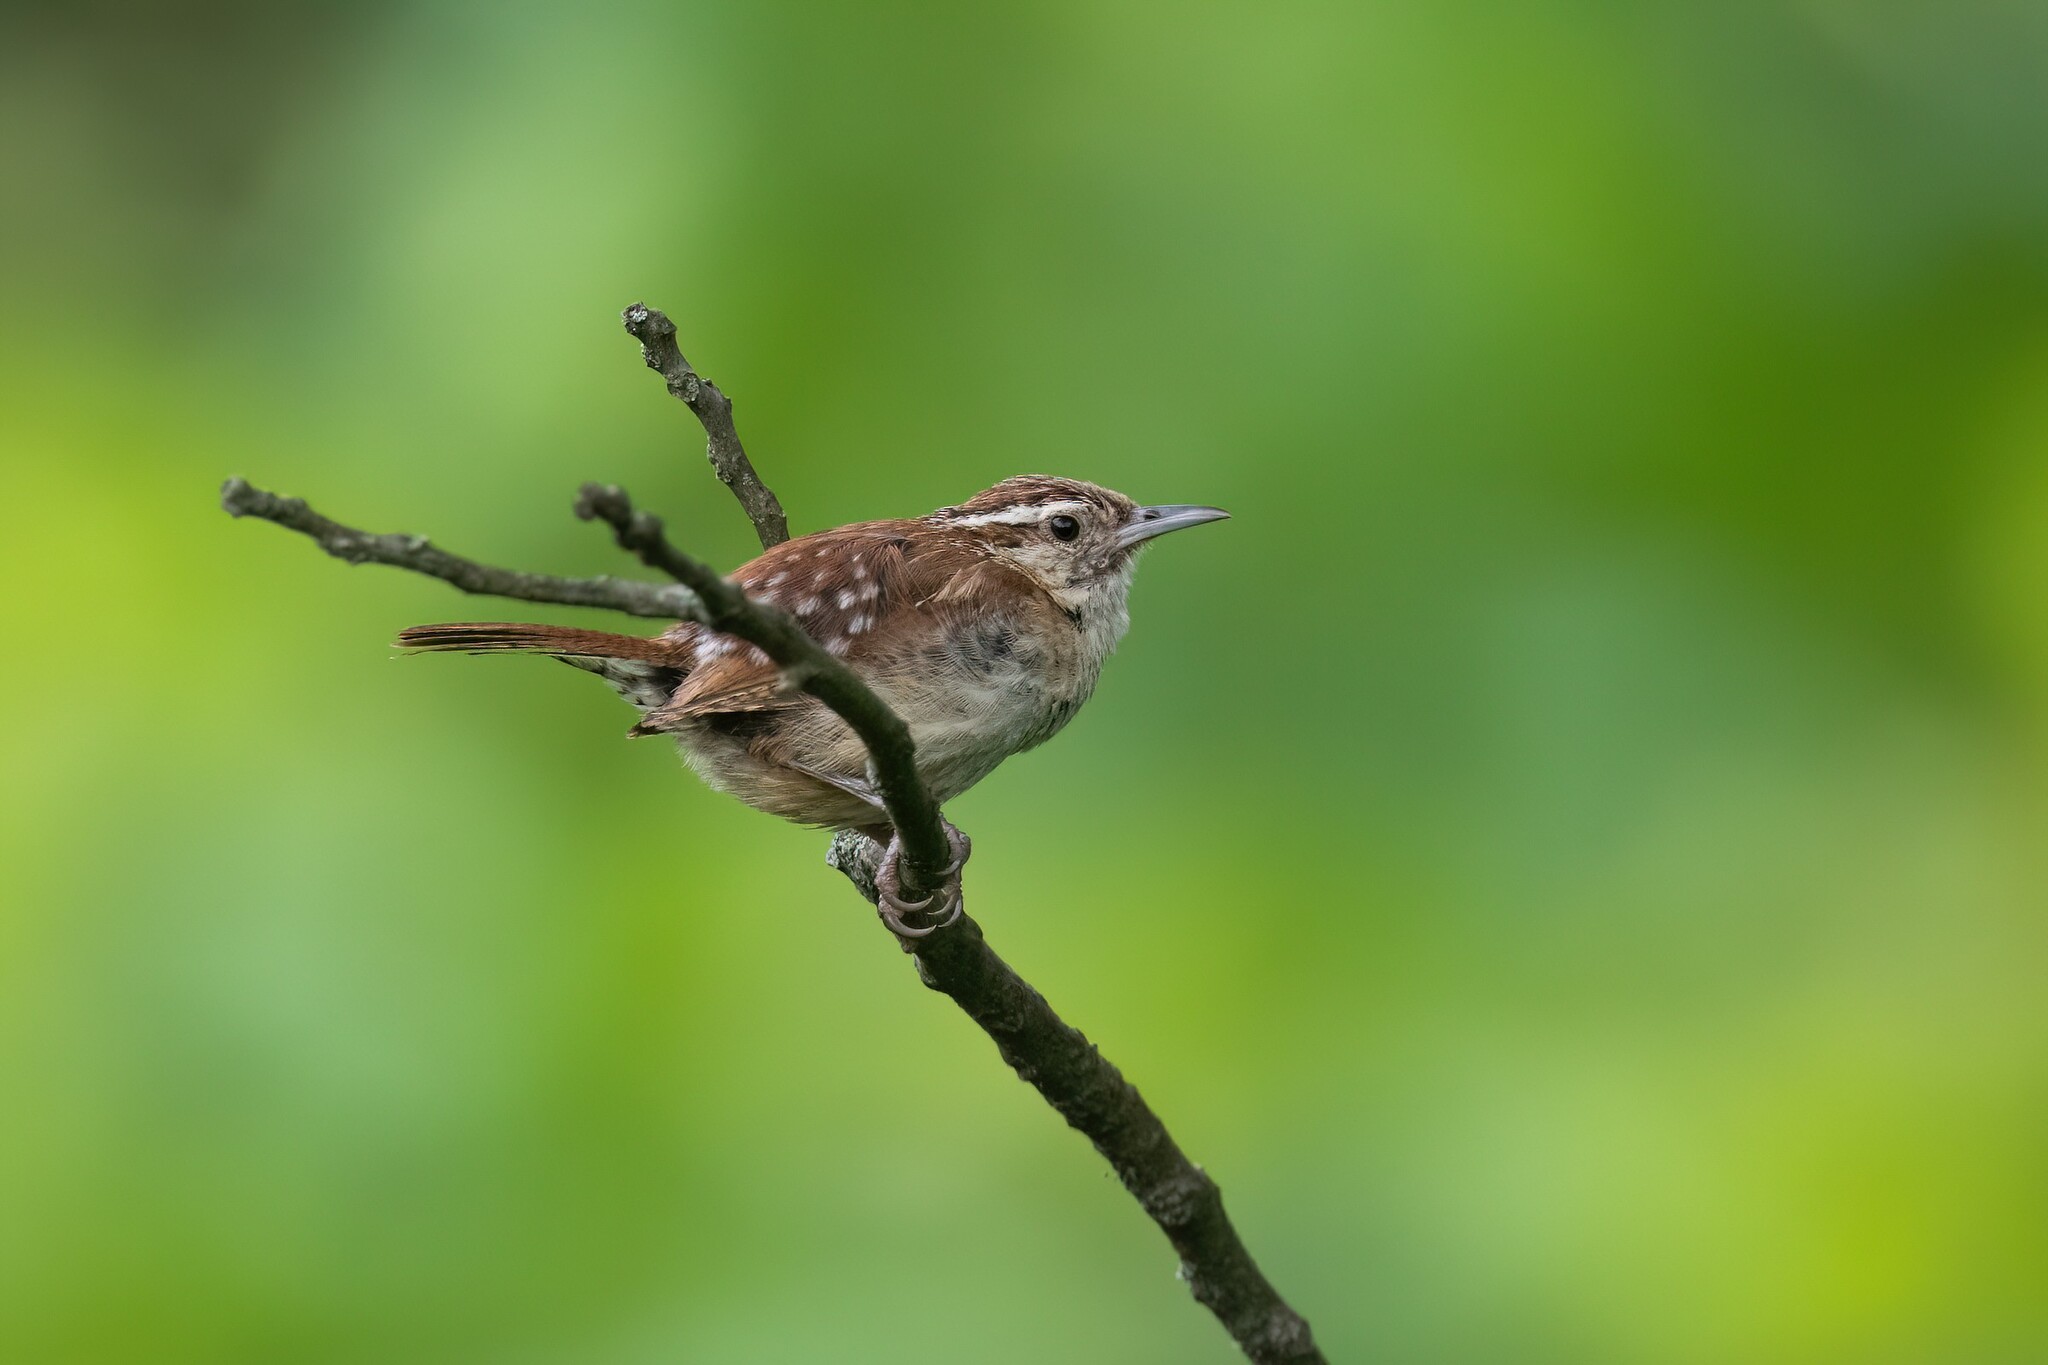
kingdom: Animalia
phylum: Chordata
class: Aves
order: Passeriformes
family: Troglodytidae
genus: Thryothorus
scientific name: Thryothorus ludovicianus
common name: Carolina wren
